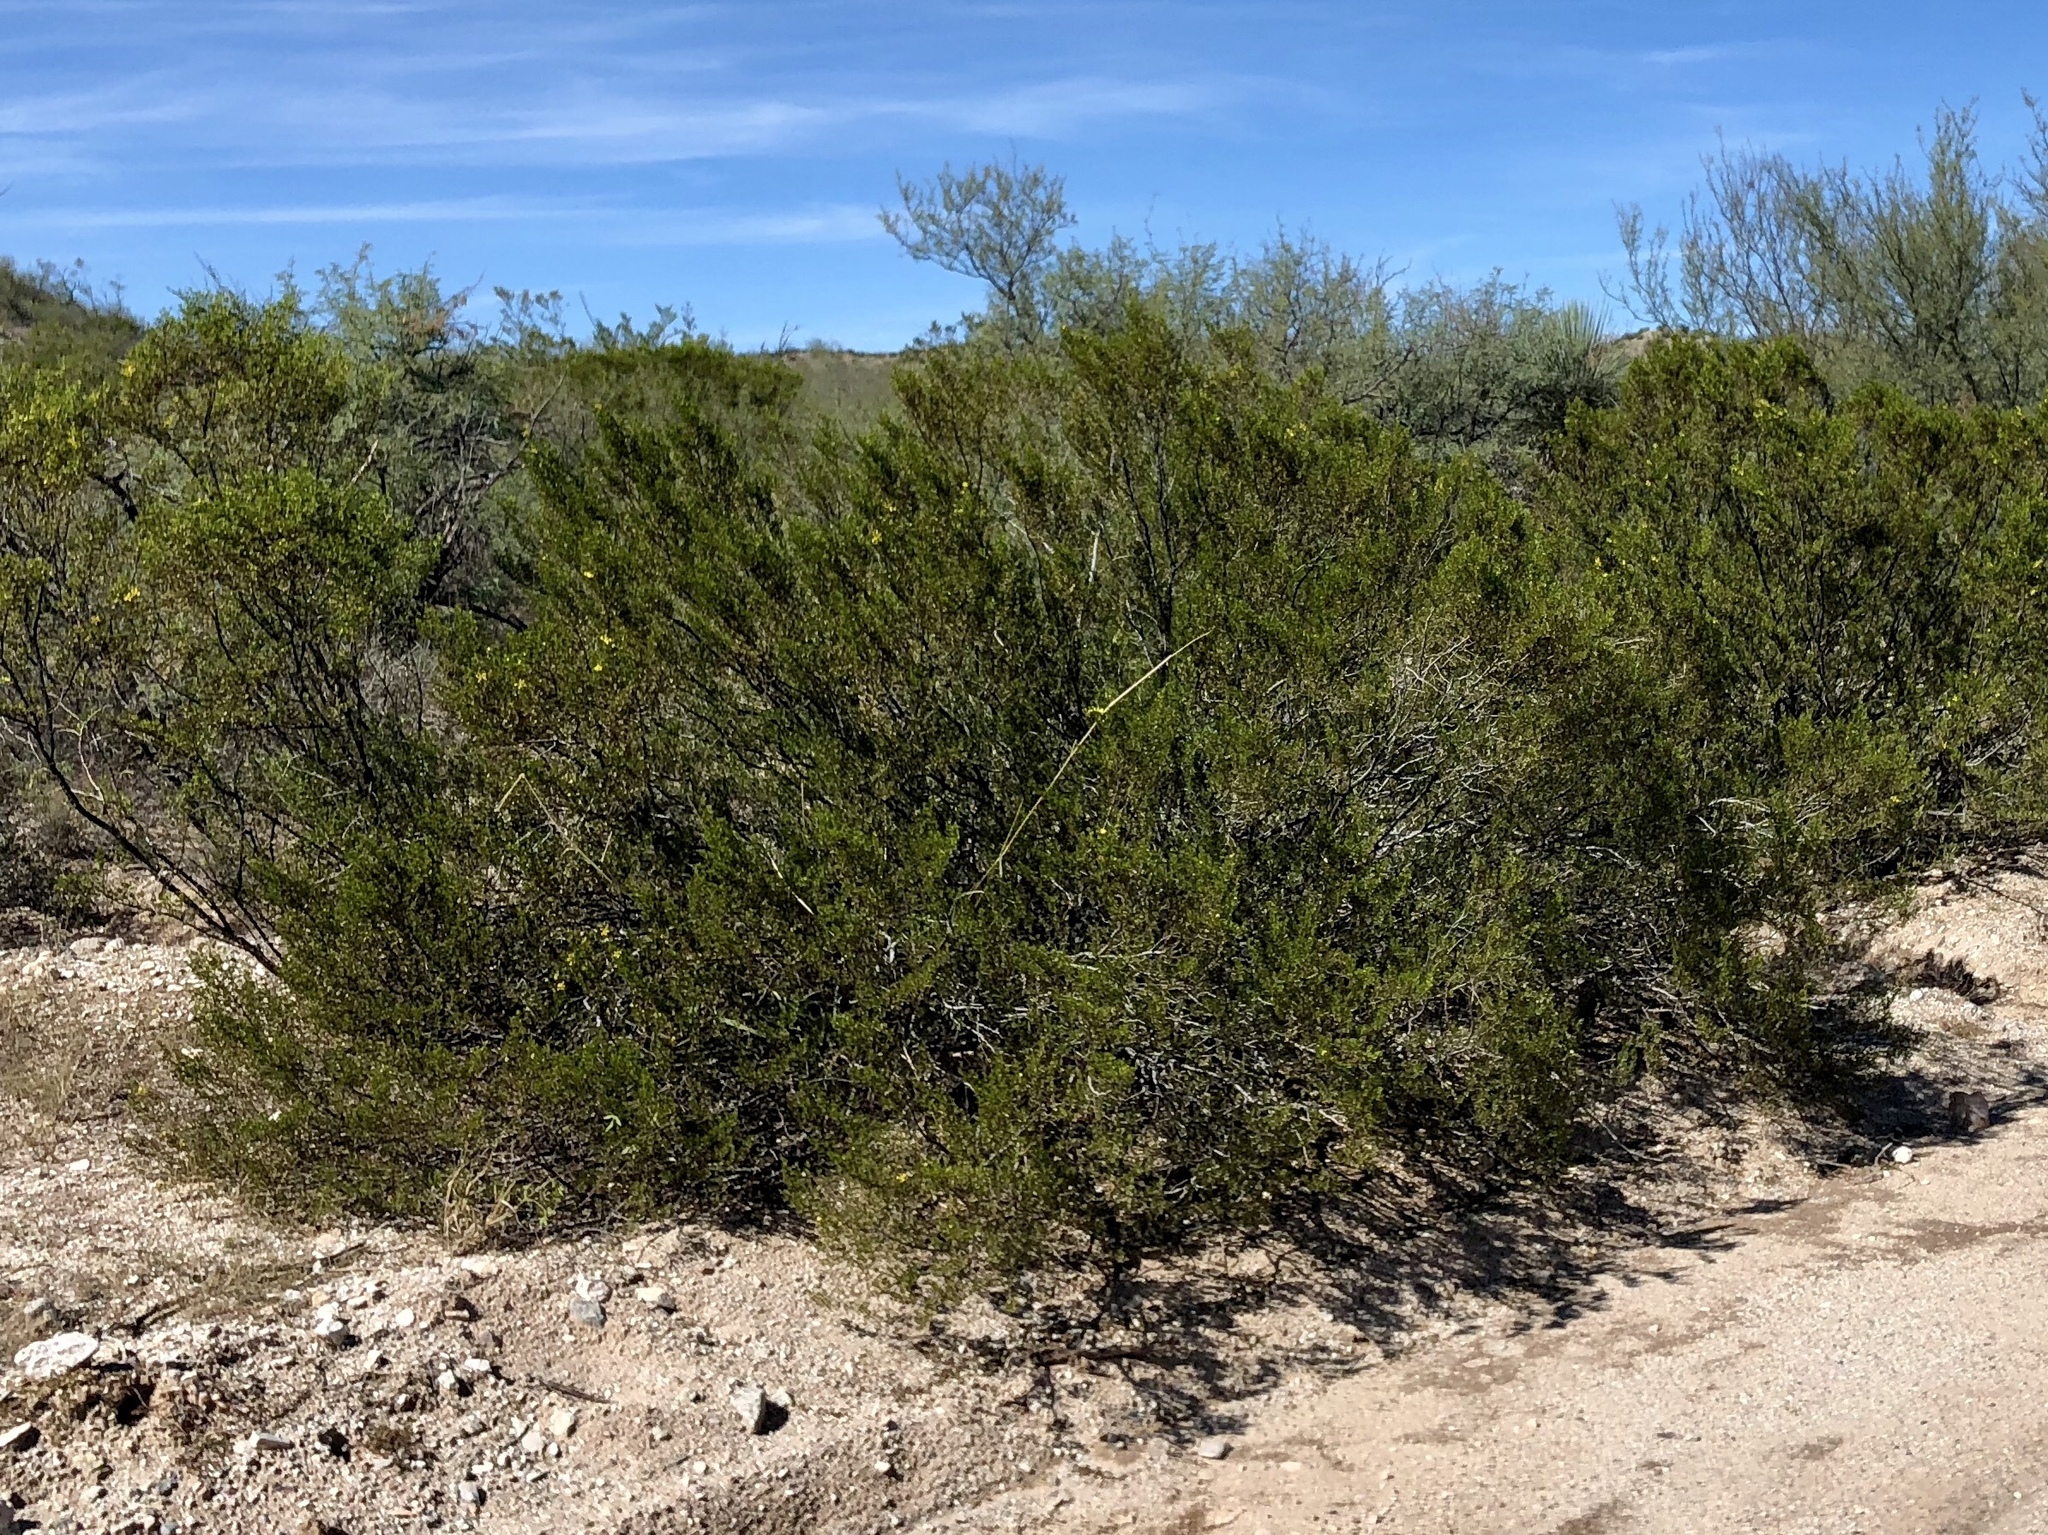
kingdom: Plantae
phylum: Tracheophyta
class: Magnoliopsida
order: Zygophyllales
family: Zygophyllaceae
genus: Larrea
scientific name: Larrea tridentata
